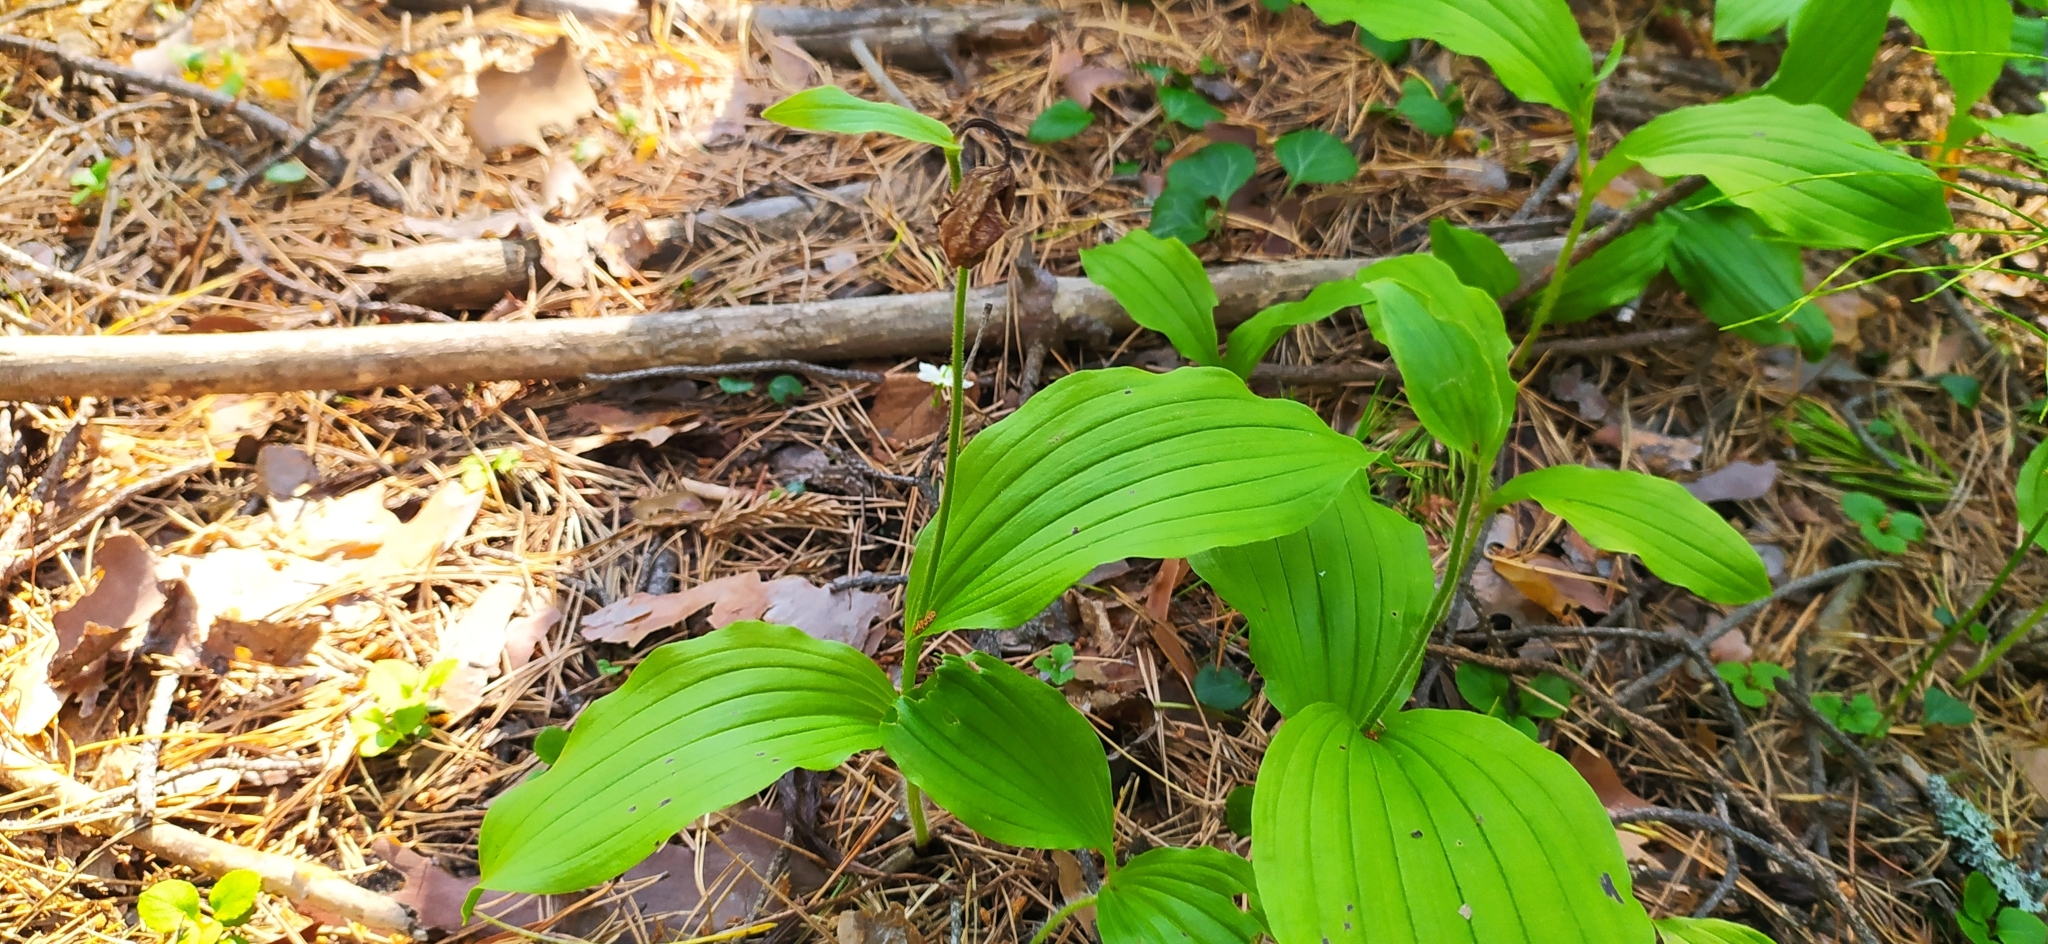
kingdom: Plantae
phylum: Tracheophyta
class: Liliopsida
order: Asparagales
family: Orchidaceae
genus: Cypripedium
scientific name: Cypripedium guttatum
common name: Pink lady slipper
